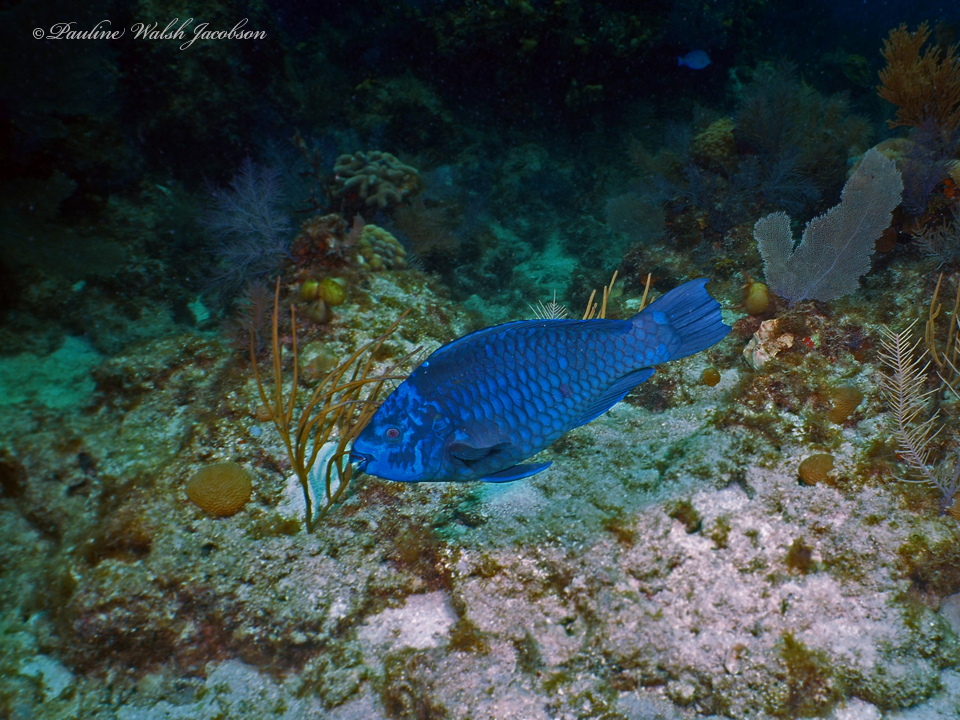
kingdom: Animalia
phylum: Chordata
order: Perciformes
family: Scaridae
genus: Scarus
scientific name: Scarus coelestinus
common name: Midnight parrotfish
